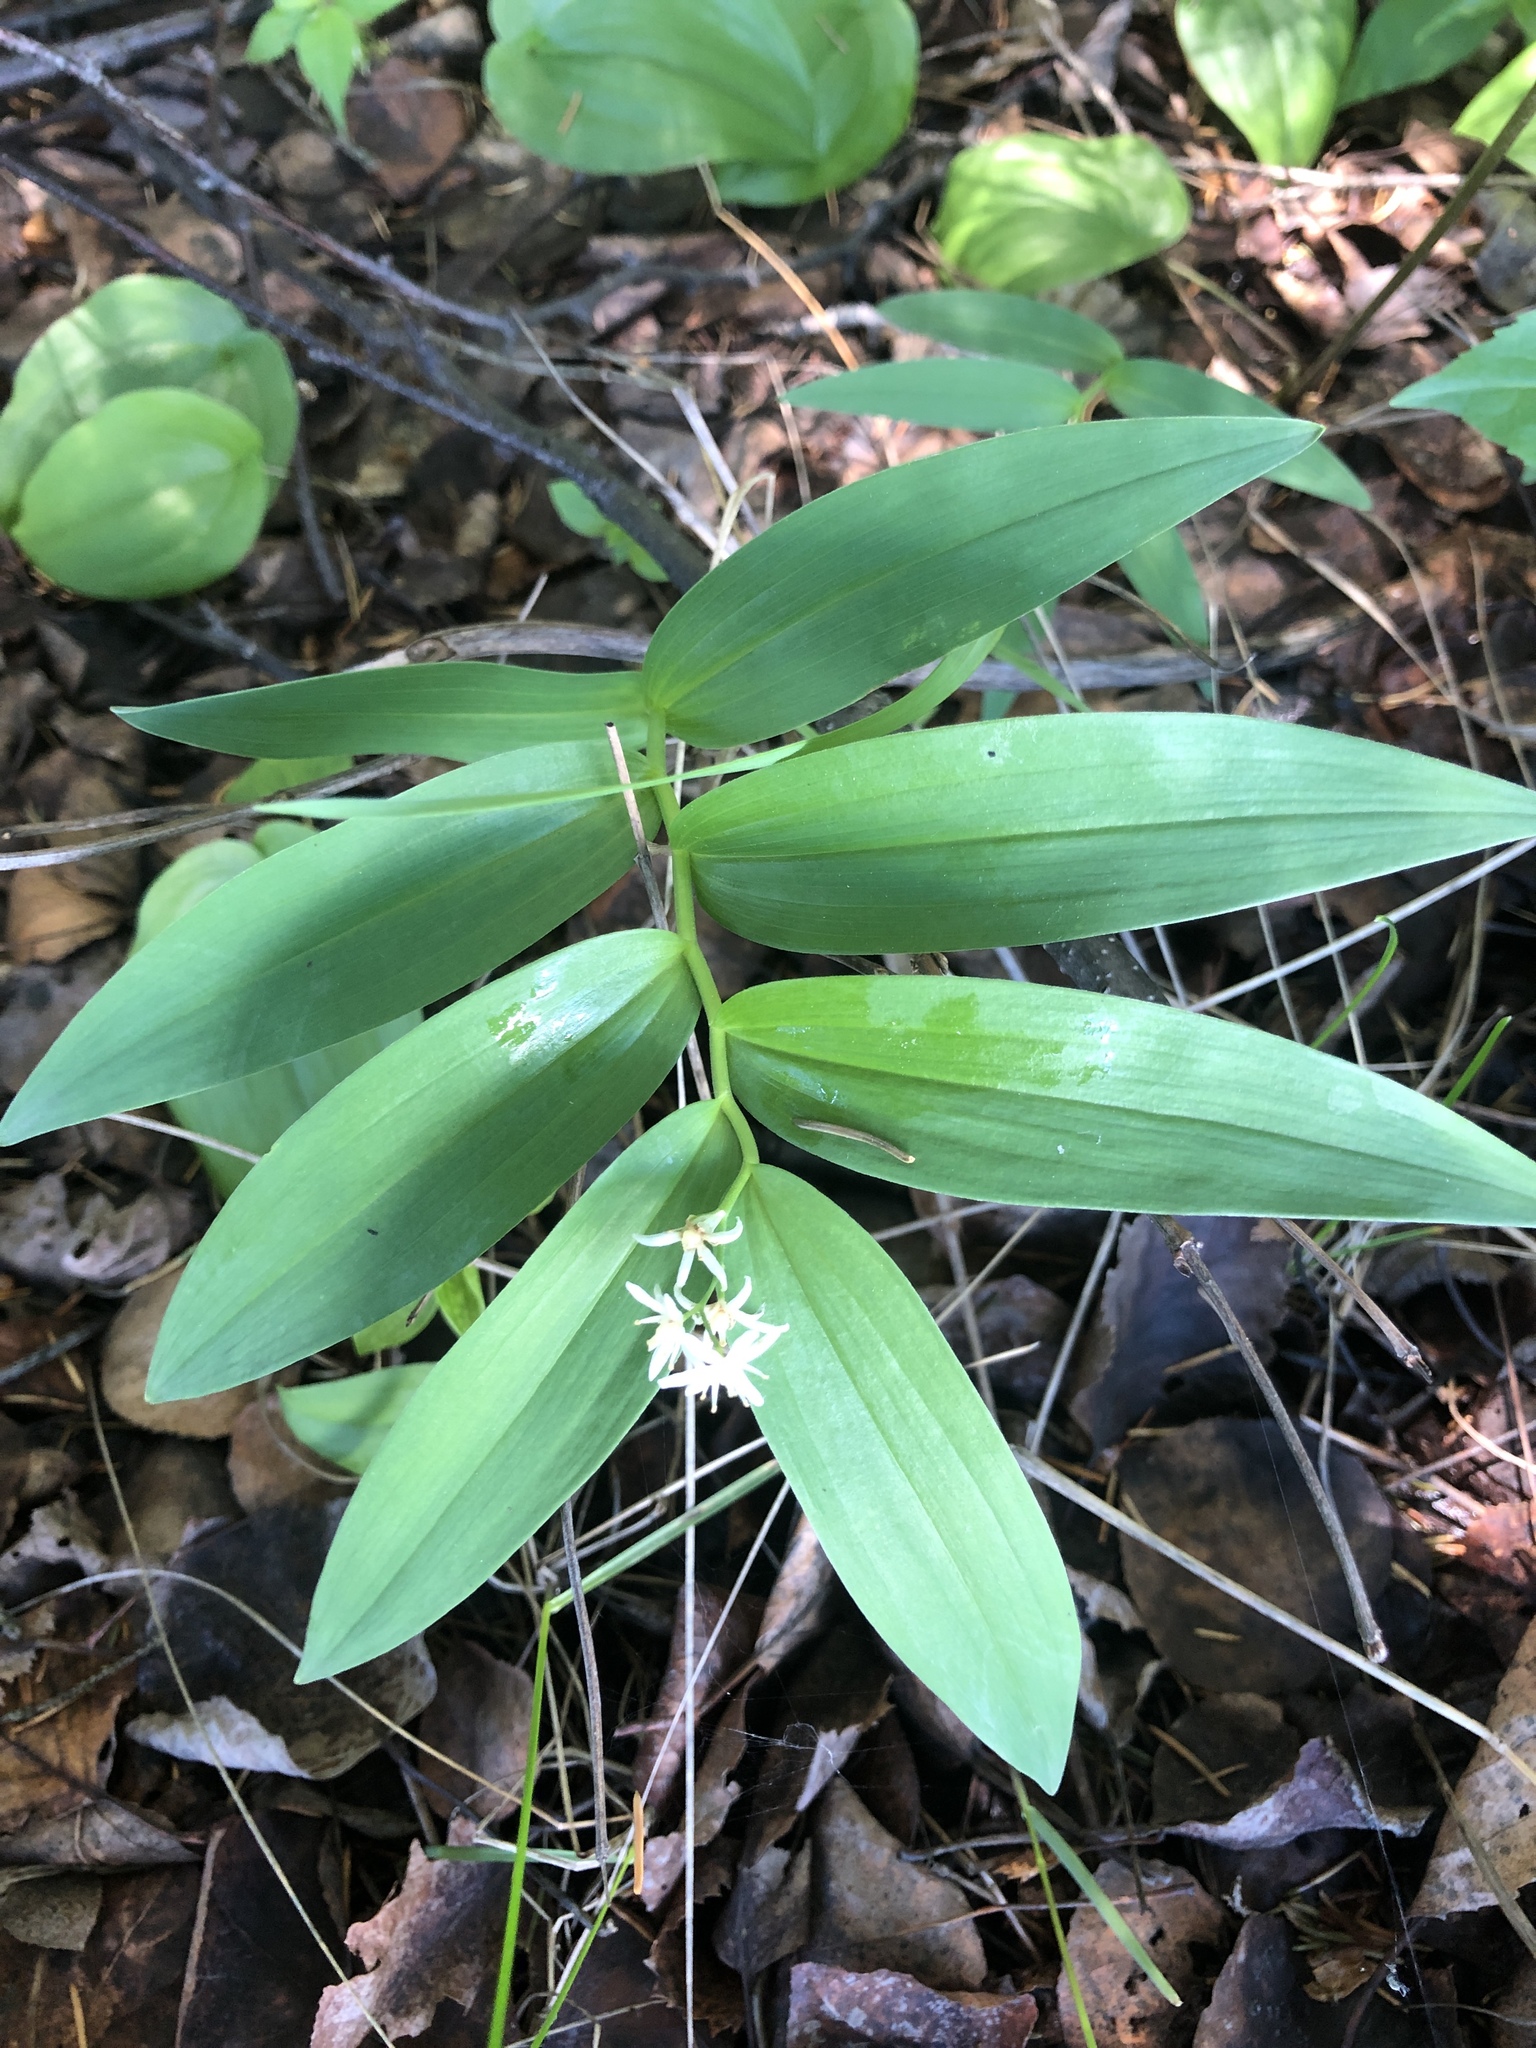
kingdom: Plantae
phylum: Tracheophyta
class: Liliopsida
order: Asparagales
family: Asparagaceae
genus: Maianthemum
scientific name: Maianthemum stellatum
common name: Little false solomon's seal
